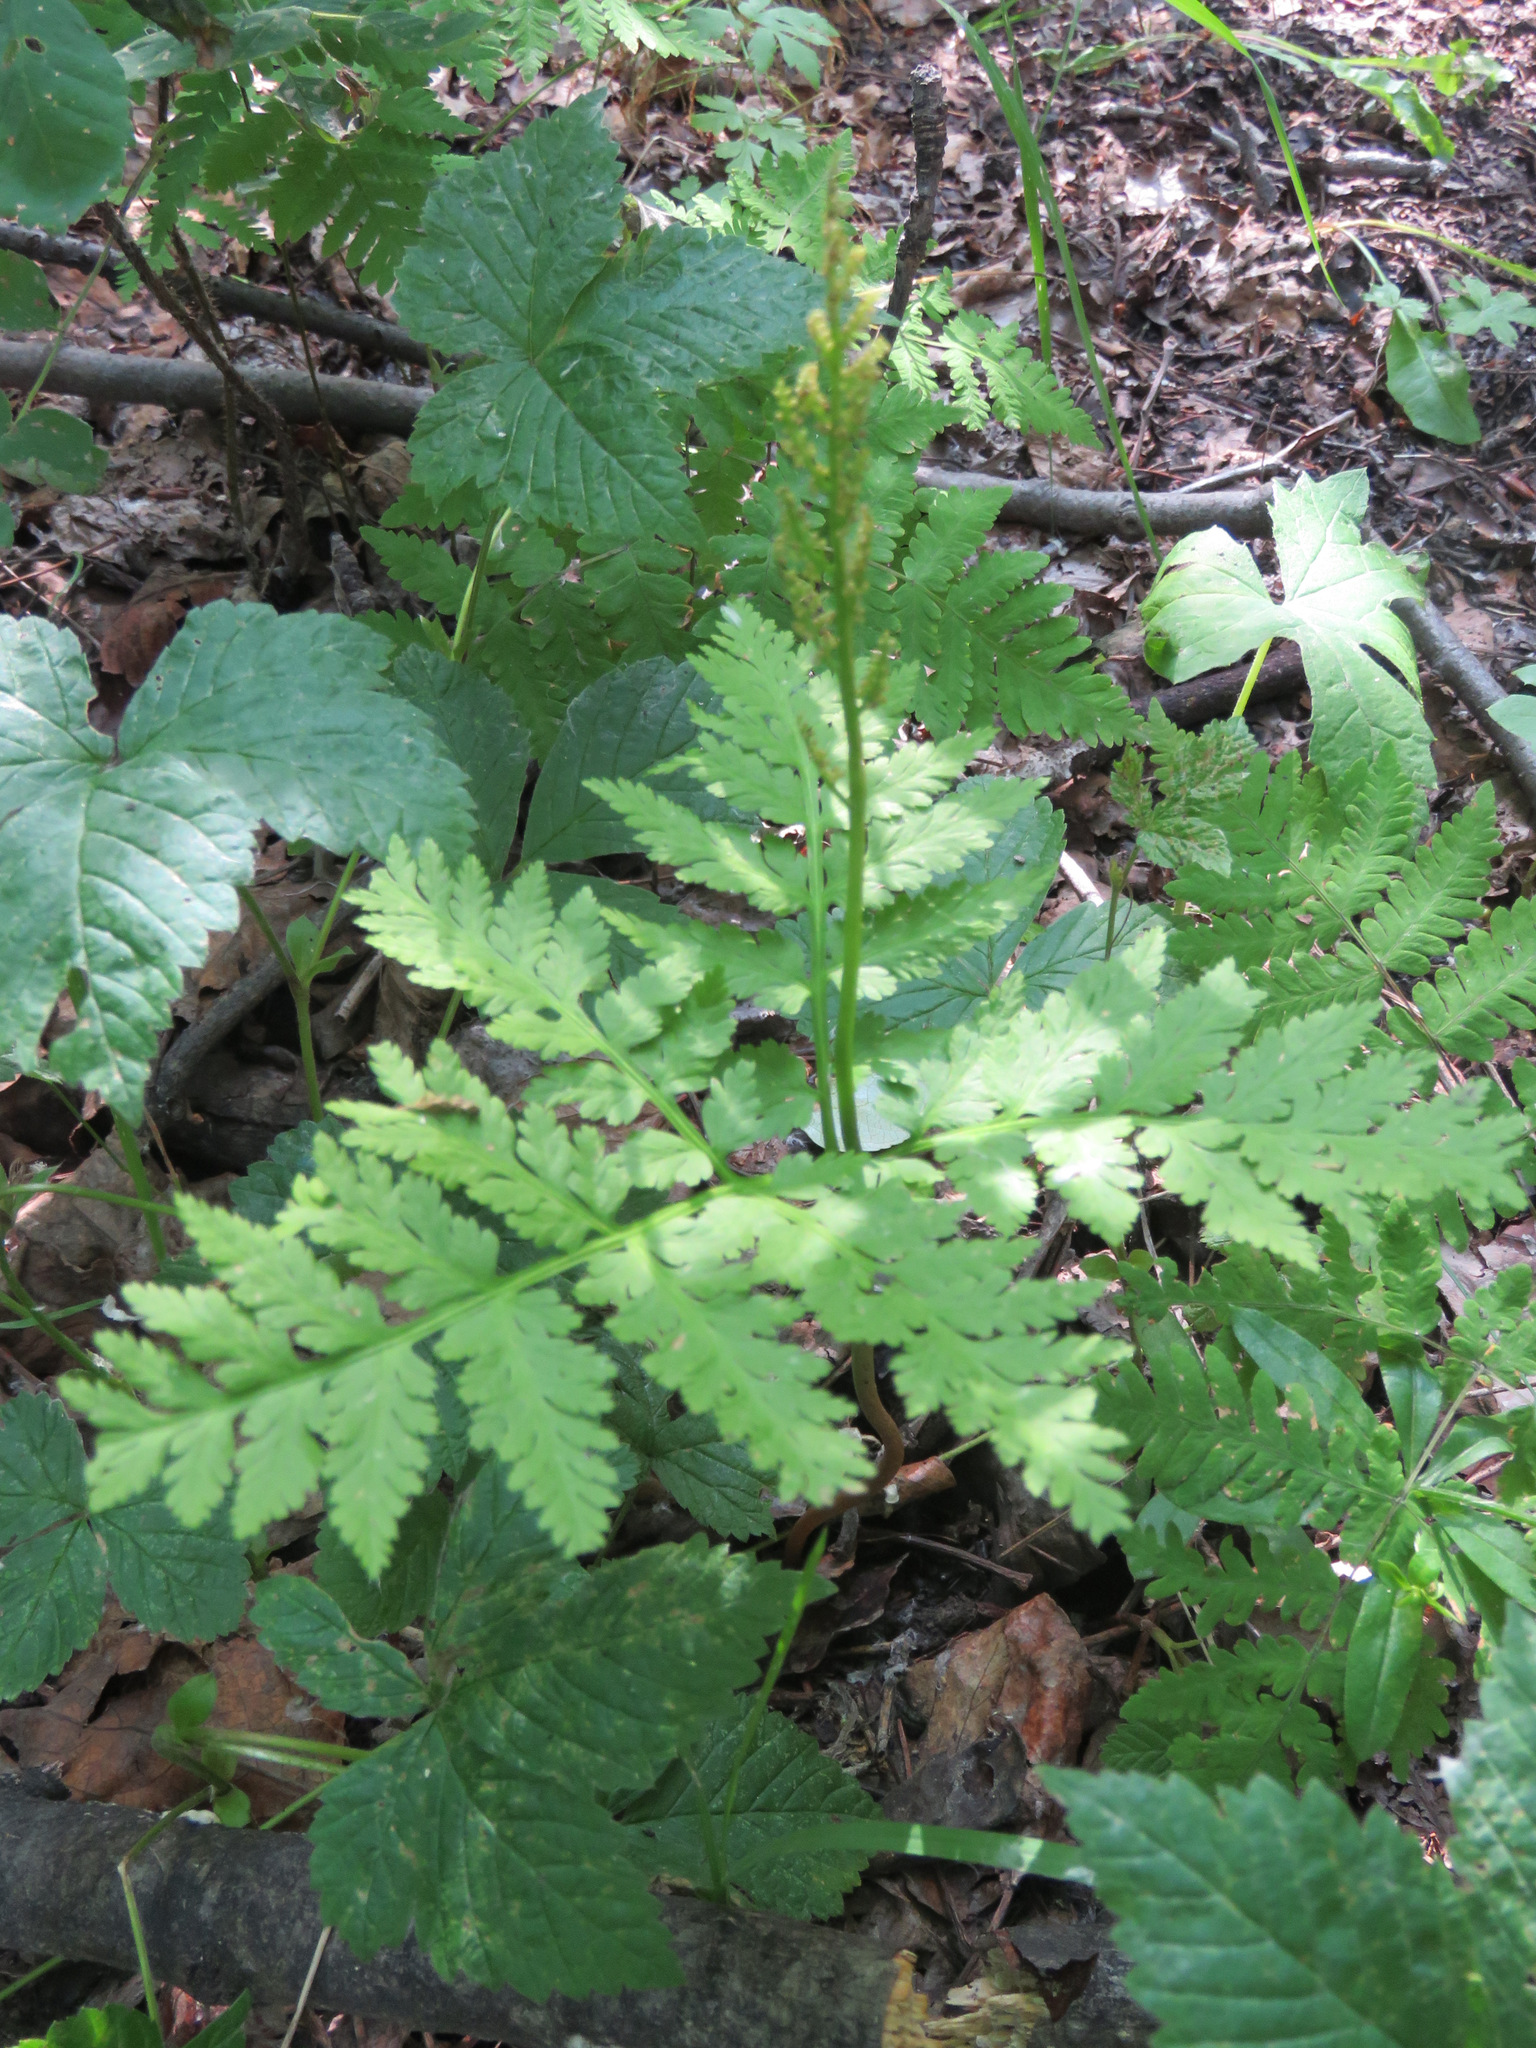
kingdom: Plantae
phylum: Tracheophyta
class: Polypodiopsida
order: Ophioglossales
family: Ophioglossaceae
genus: Botrypus
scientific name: Botrypus virginianus
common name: Common grapefern
